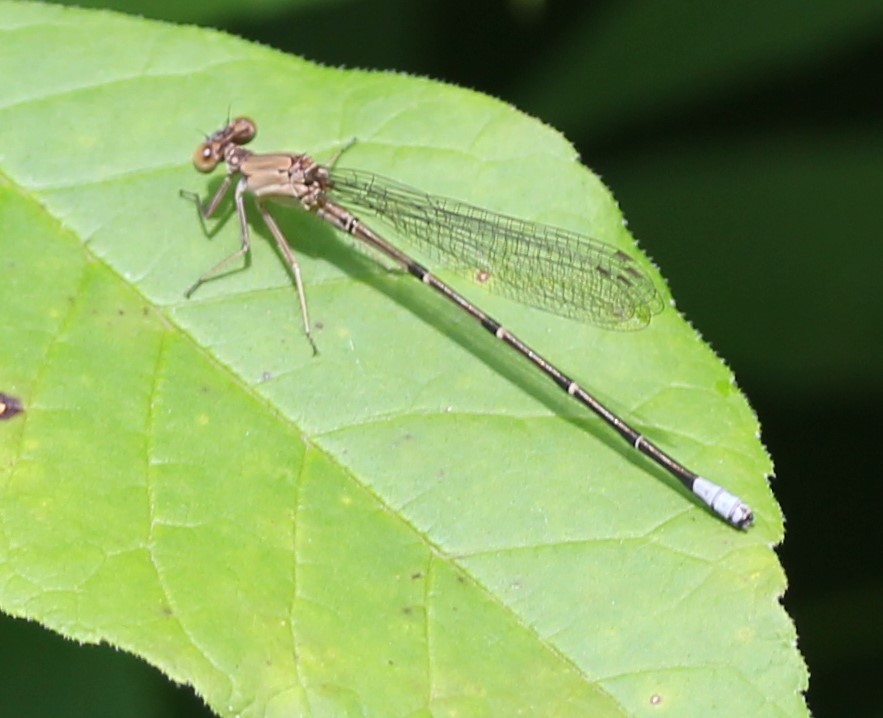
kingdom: Animalia
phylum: Arthropoda
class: Insecta
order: Odonata
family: Coenagrionidae
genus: Argia
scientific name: Argia apicalis
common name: Blue-fronted dancer
